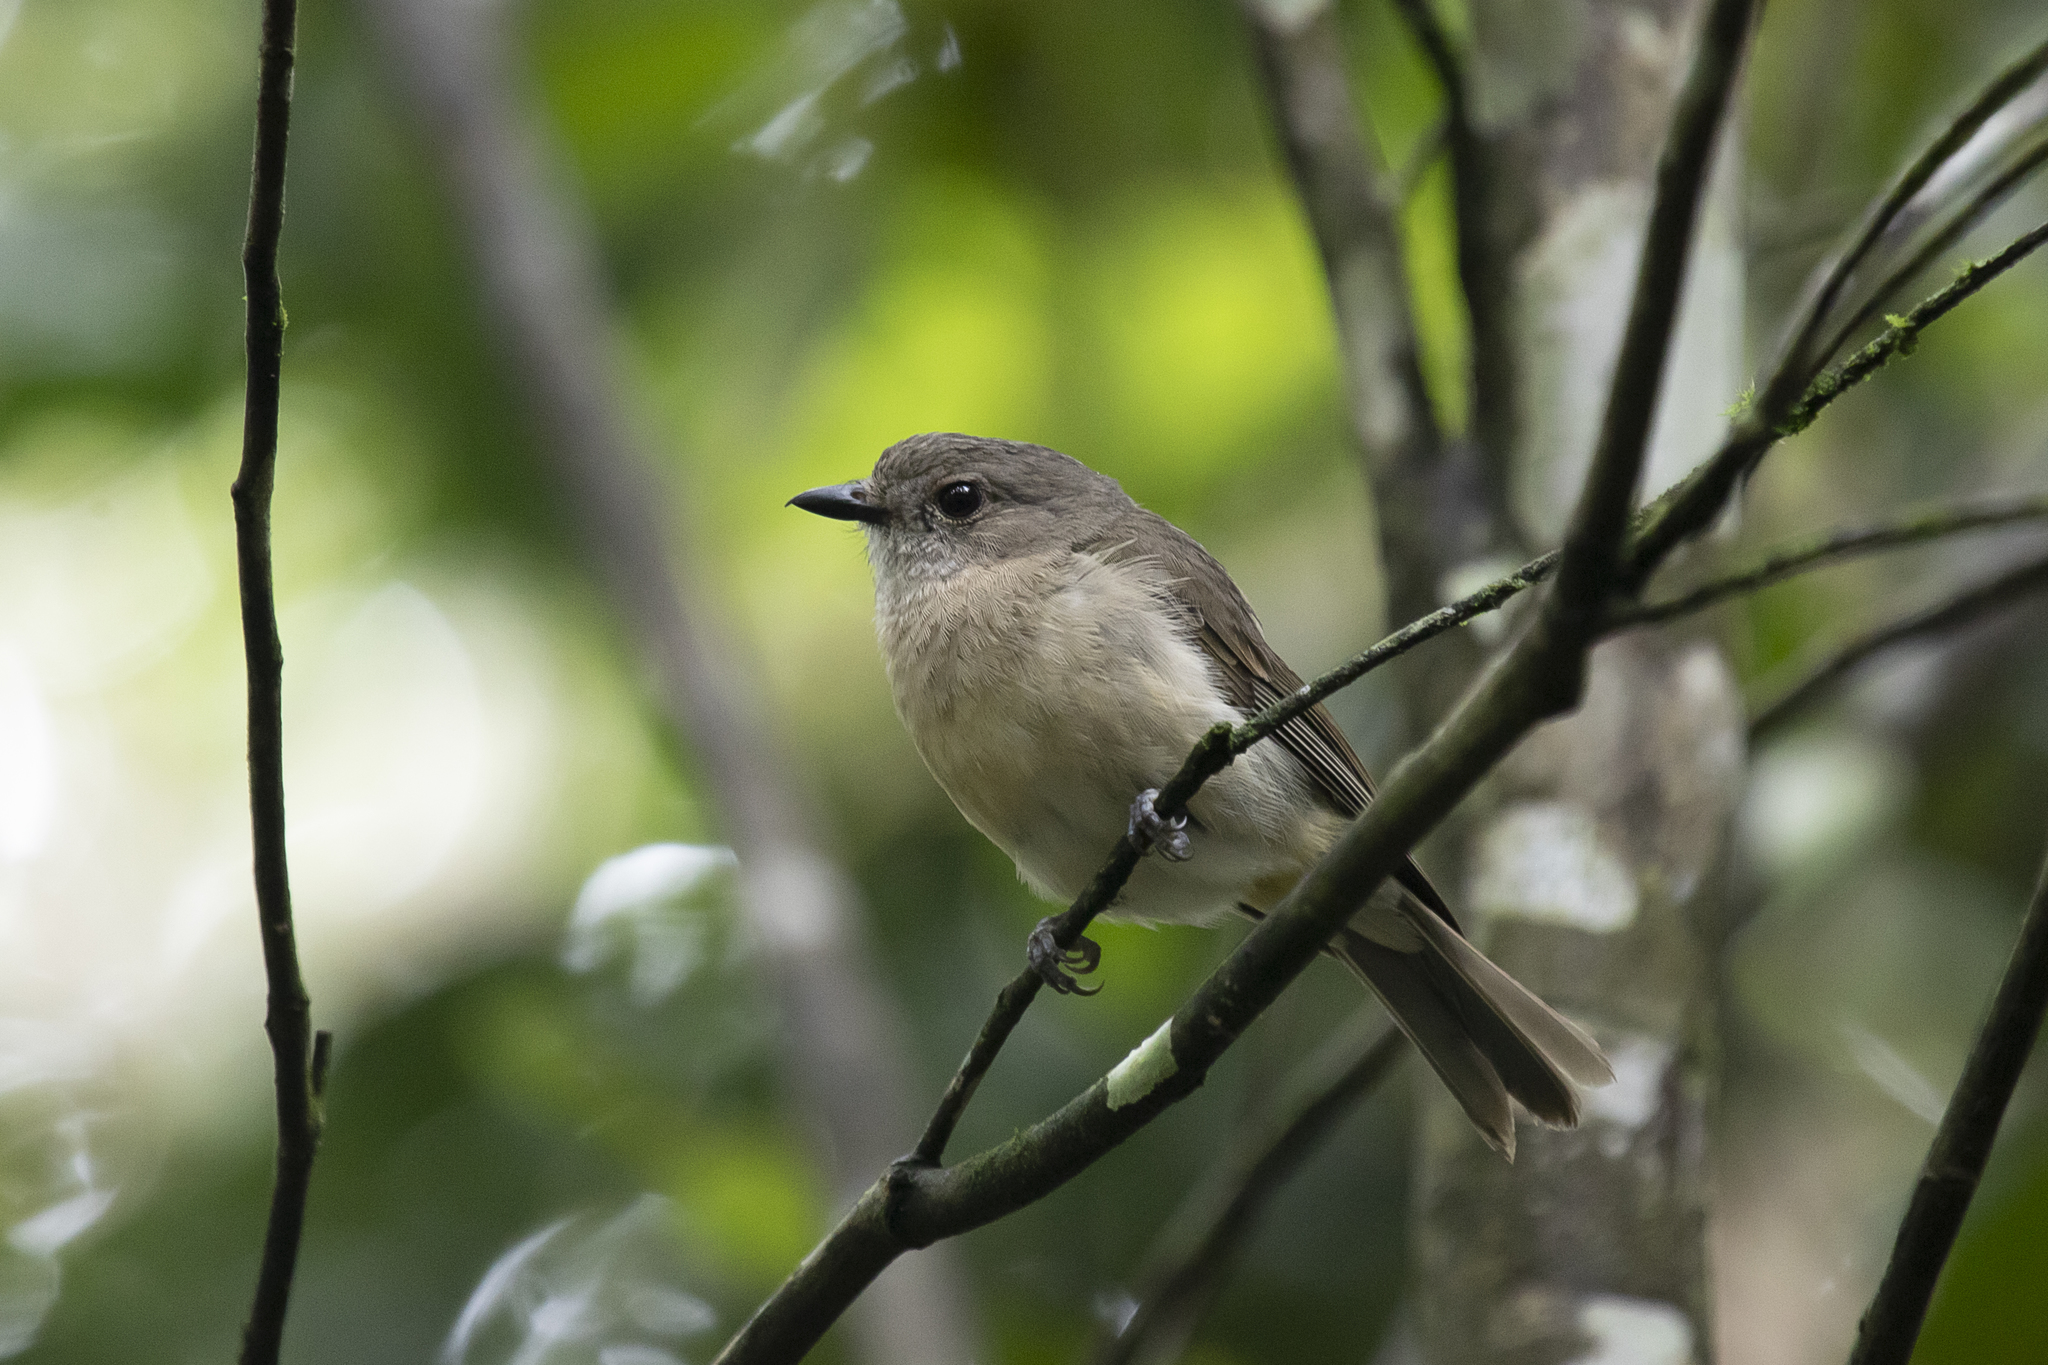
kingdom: Animalia
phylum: Chordata
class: Aves
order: Passeriformes
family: Pachycephalidae
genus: Pachycephala
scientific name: Pachycephala simplex
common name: Grey whistler
